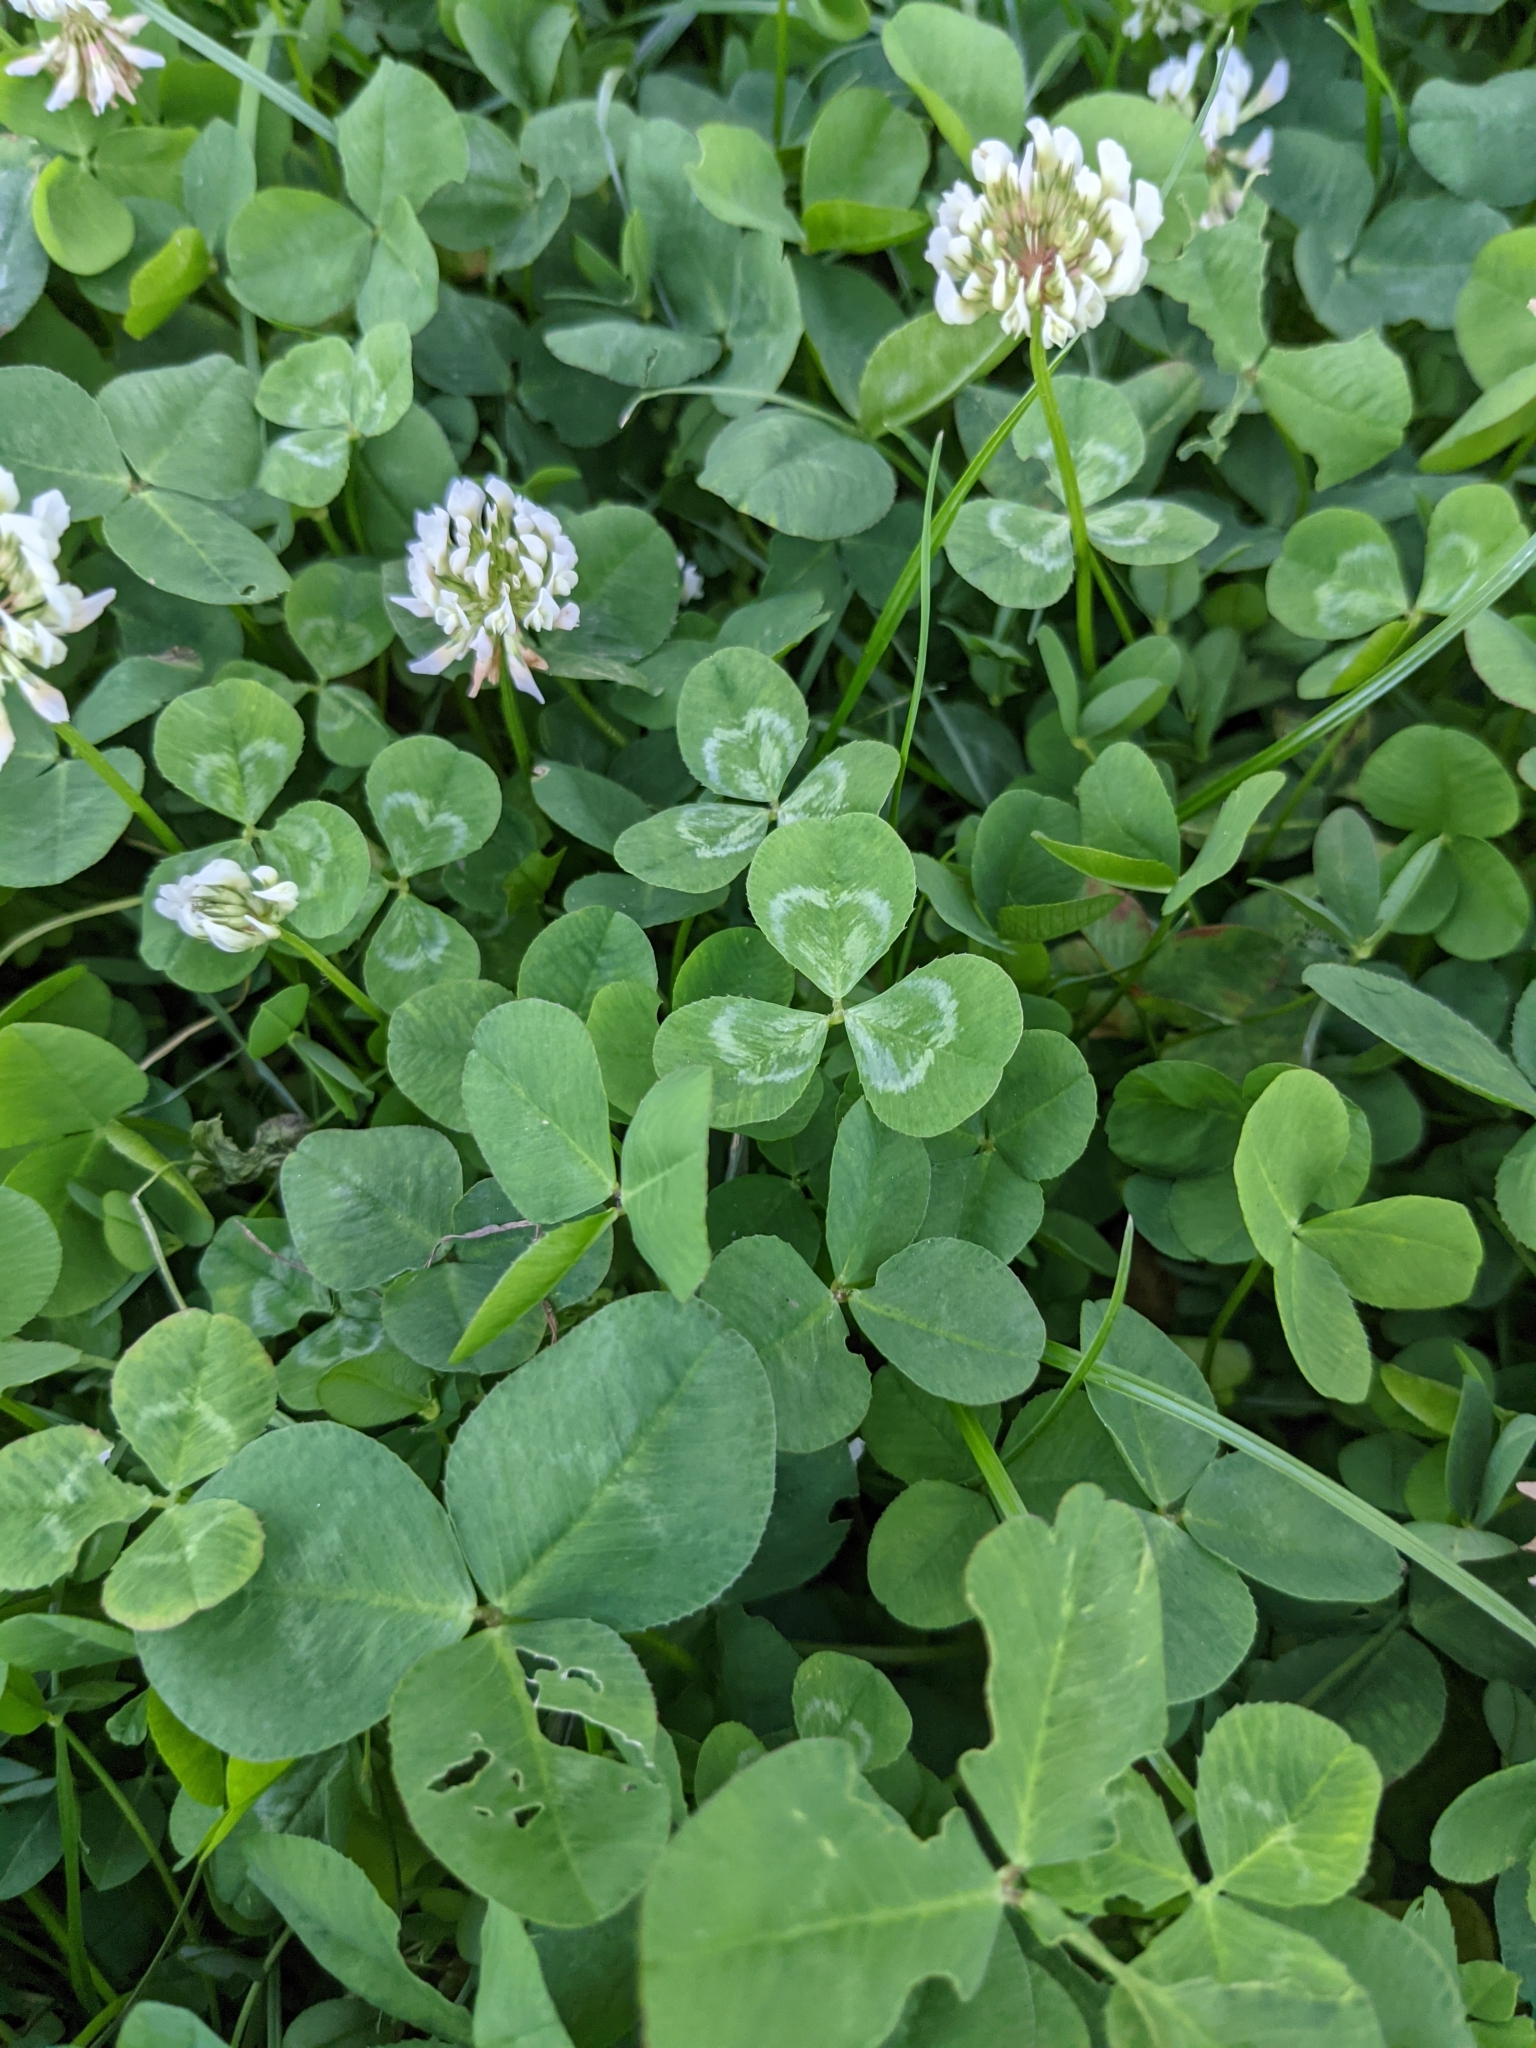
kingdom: Plantae
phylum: Tracheophyta
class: Magnoliopsida
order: Fabales
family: Fabaceae
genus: Trifolium
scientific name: Trifolium repens
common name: White clover
